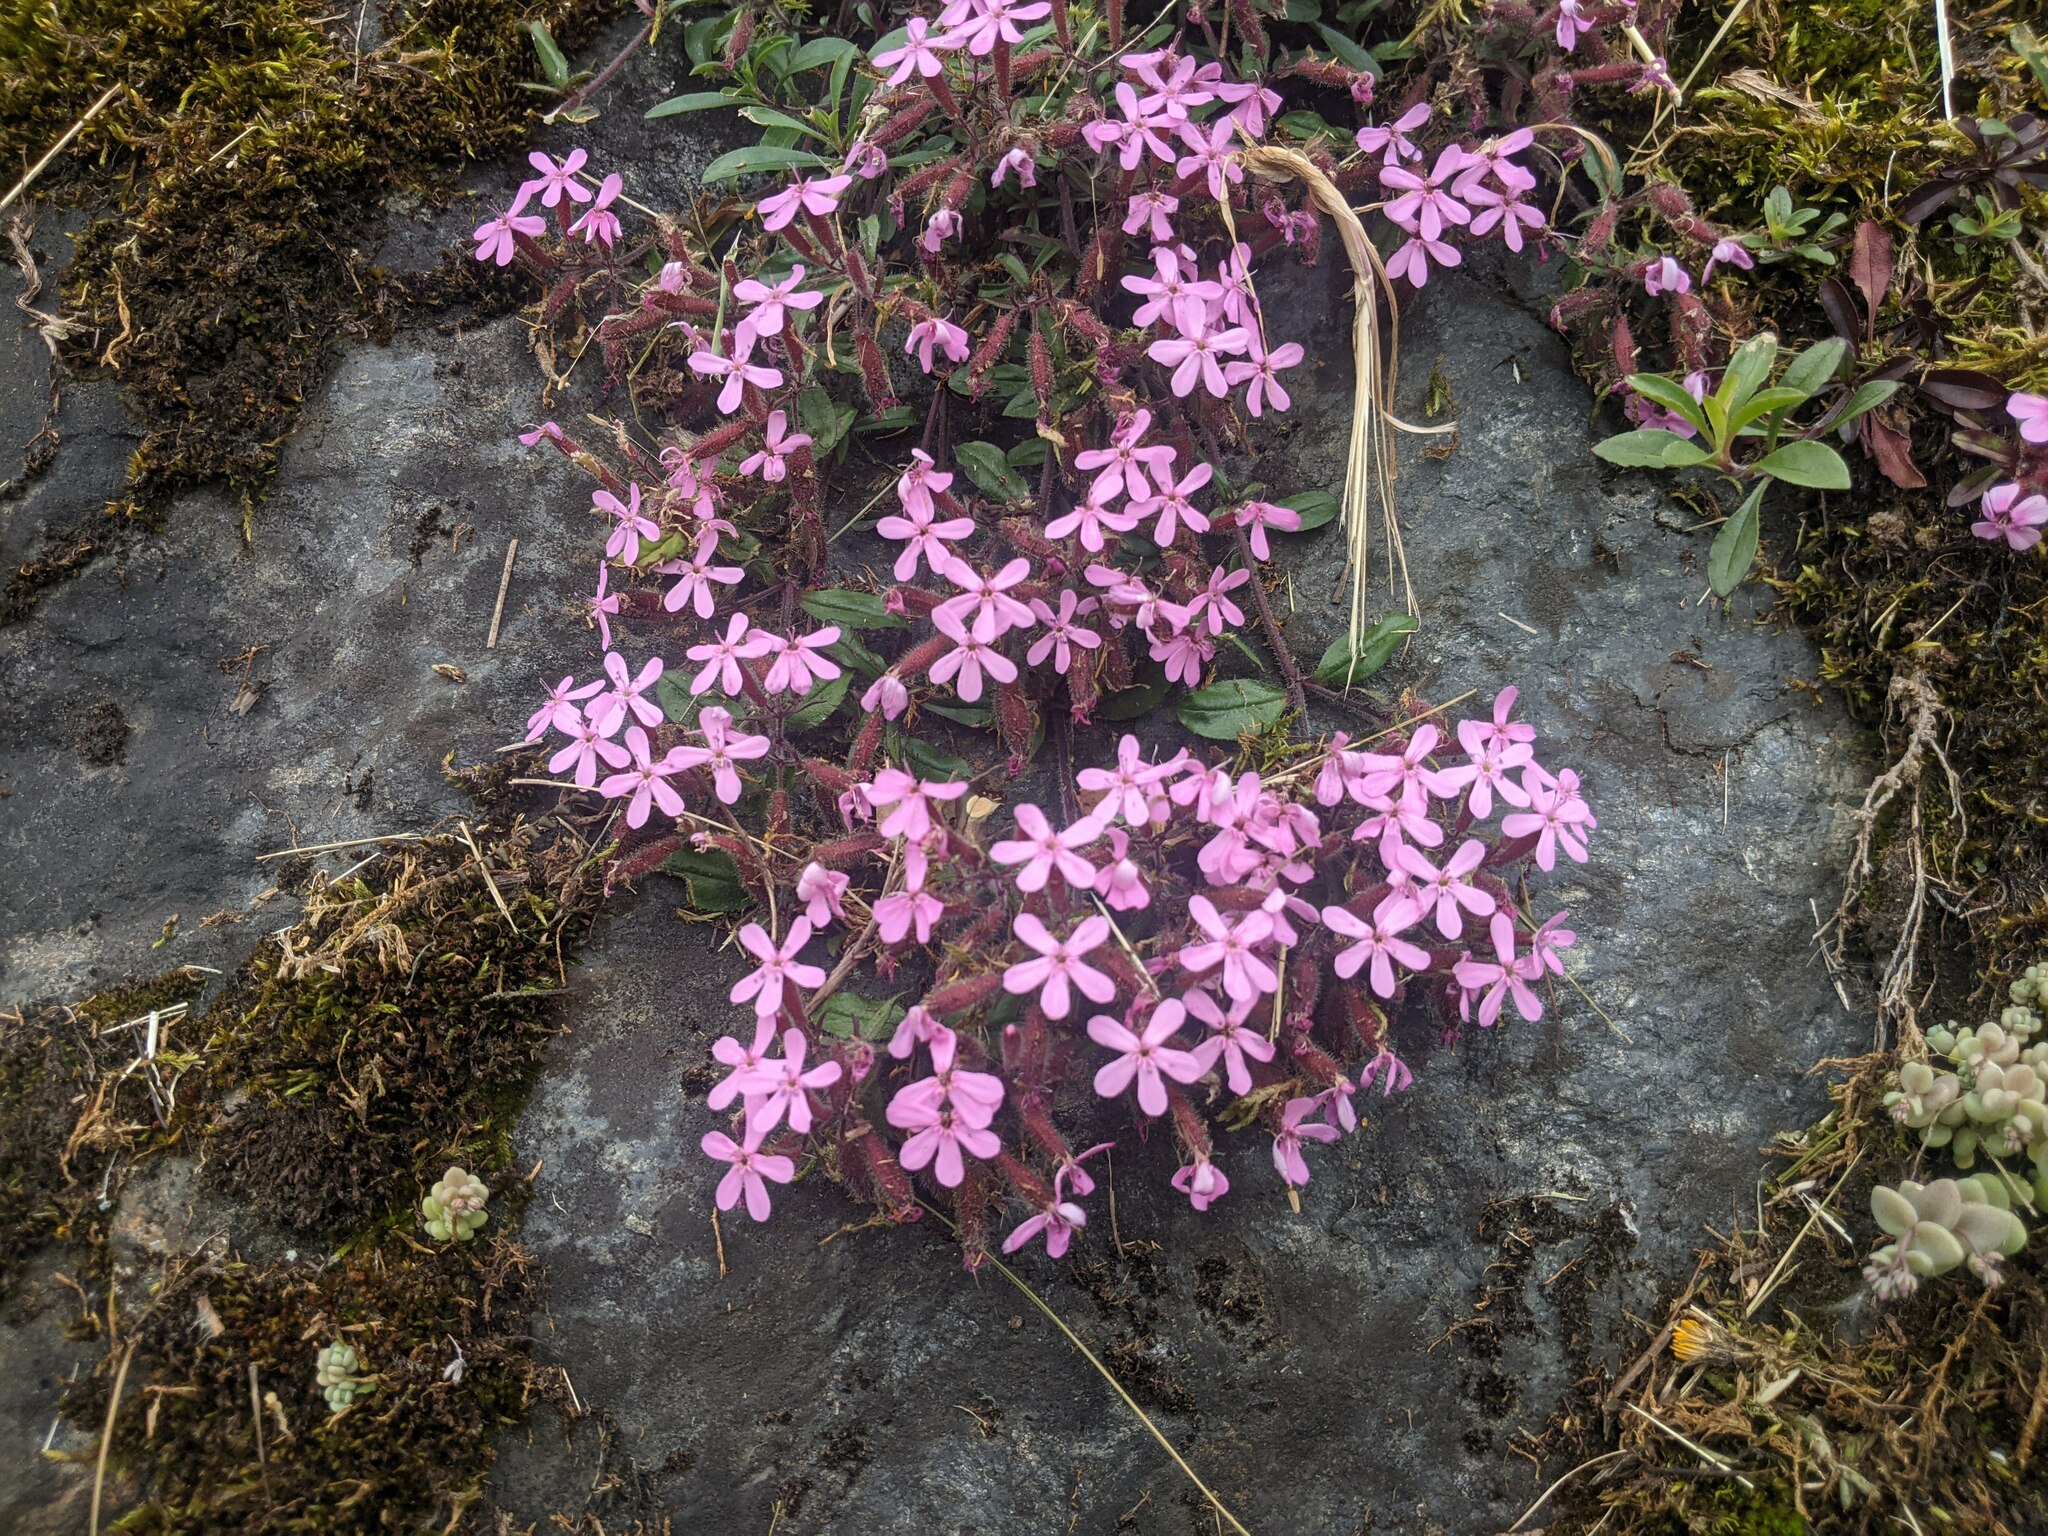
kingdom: Plantae
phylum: Tracheophyta
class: Magnoliopsida
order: Caryophyllales
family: Caryophyllaceae
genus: Saponaria
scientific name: Saponaria ocymoides
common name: Rock soapwort
